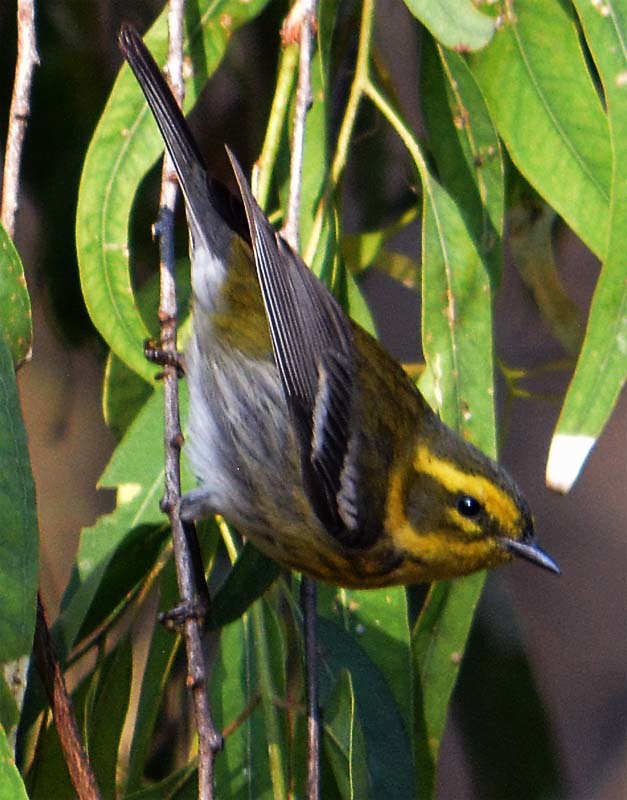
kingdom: Animalia
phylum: Chordata
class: Aves
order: Passeriformes
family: Parulidae
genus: Setophaga
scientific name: Setophaga townsendi
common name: Townsend's warbler
